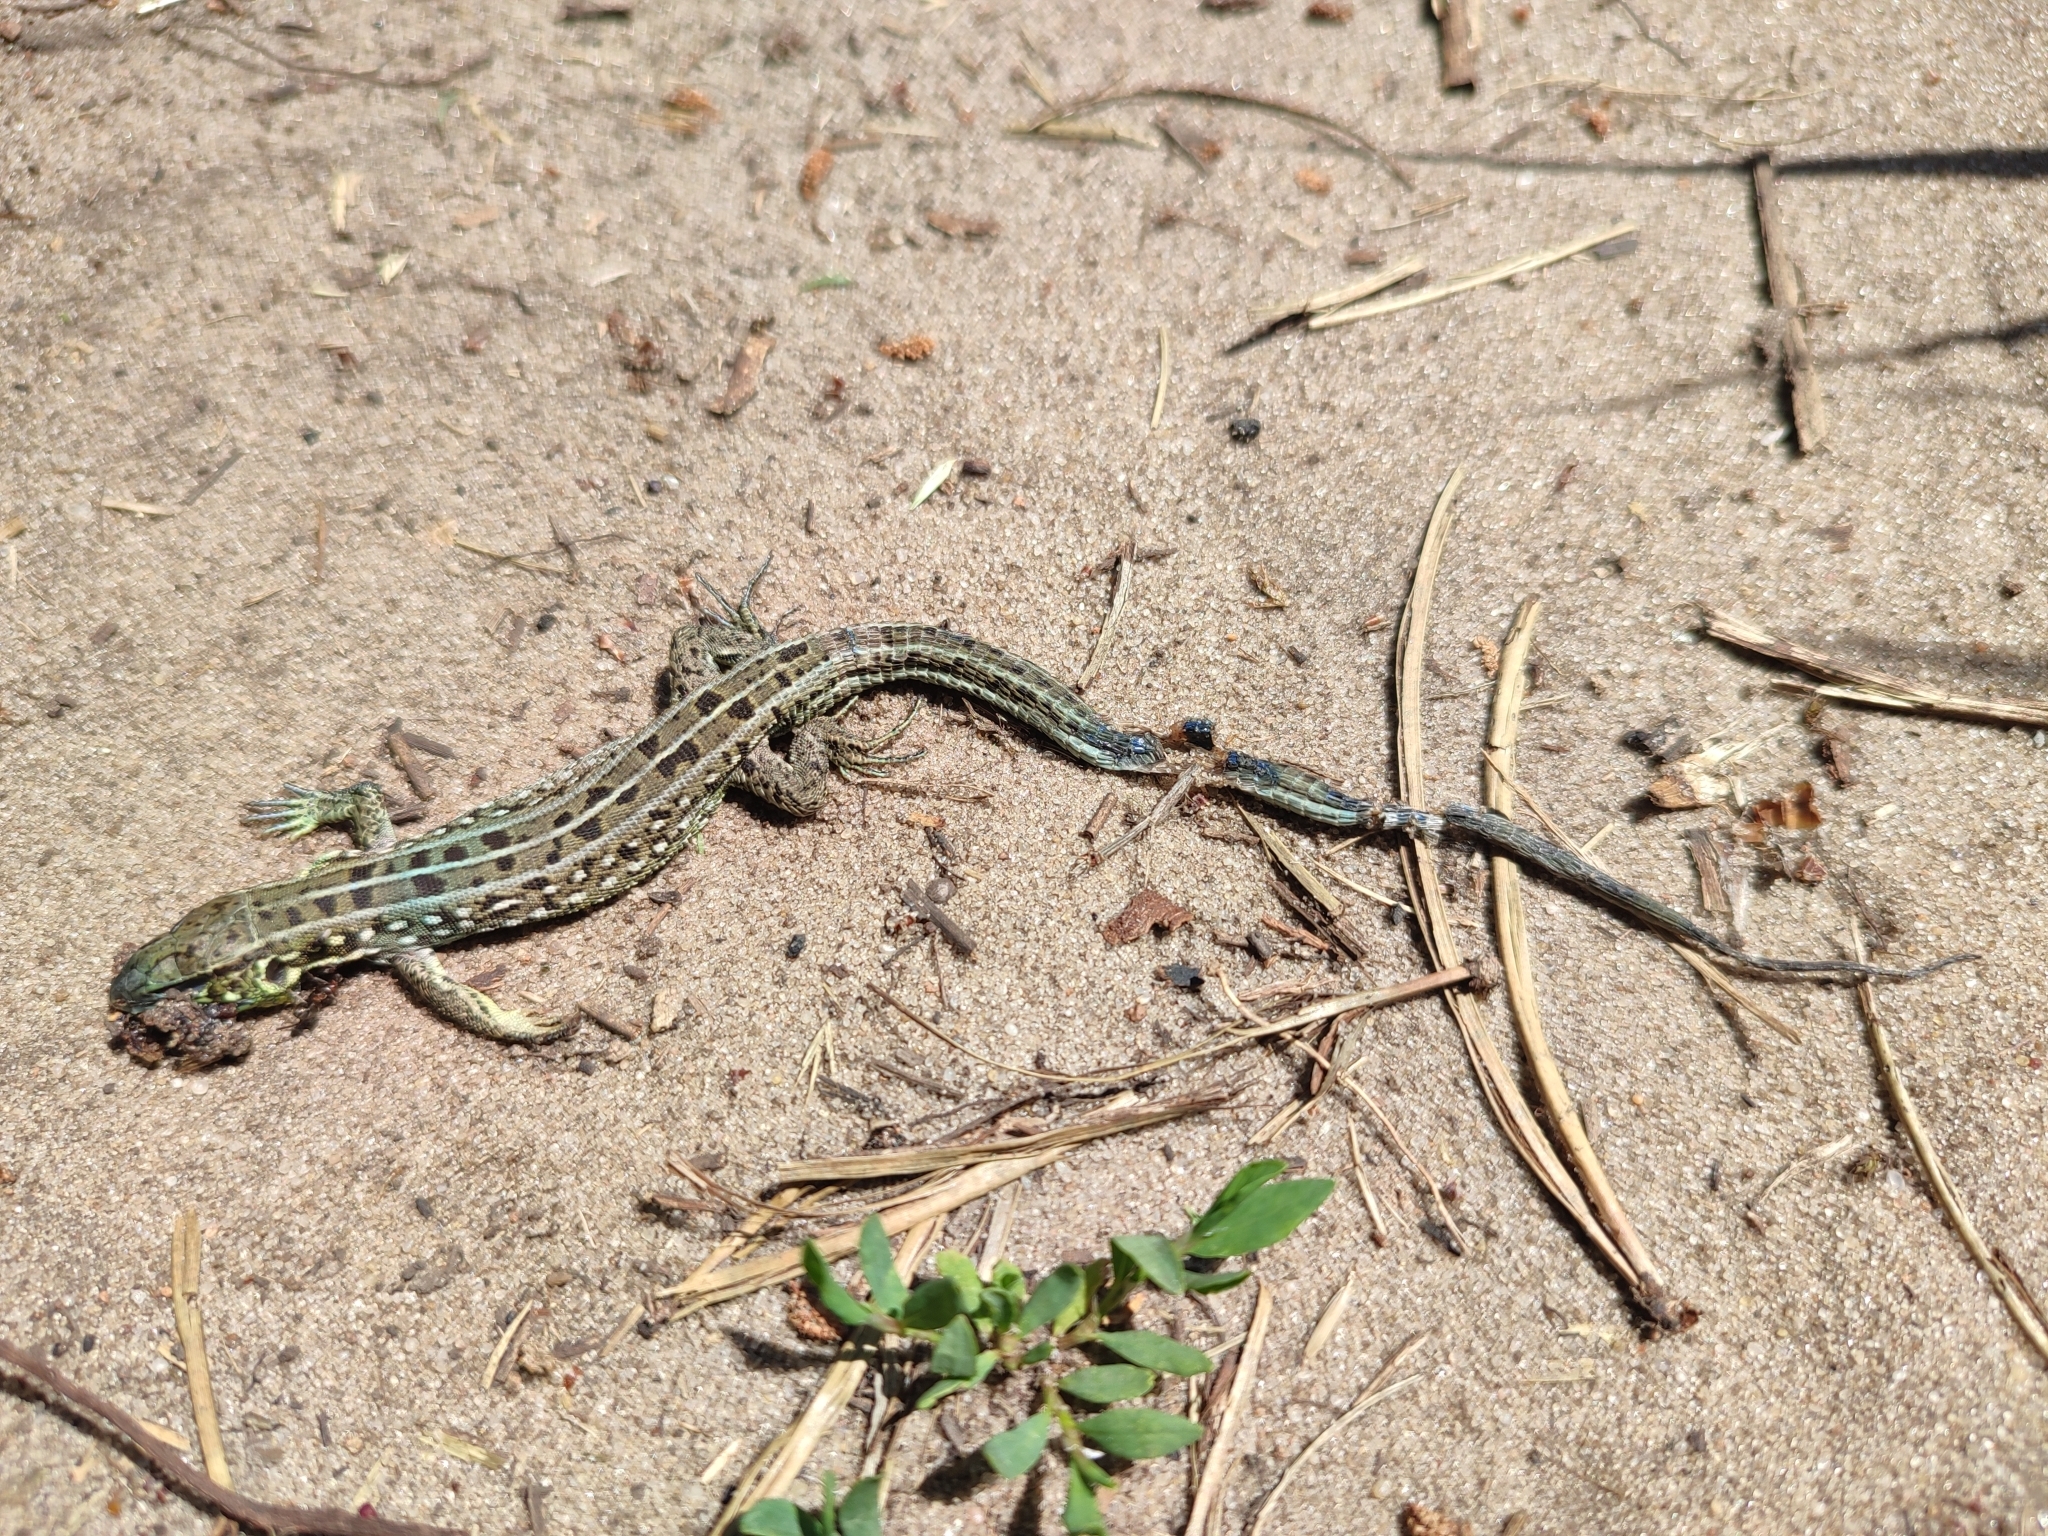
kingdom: Animalia
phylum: Chordata
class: Squamata
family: Lacertidae
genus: Lacerta
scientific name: Lacerta agilis
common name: Sand lizard
